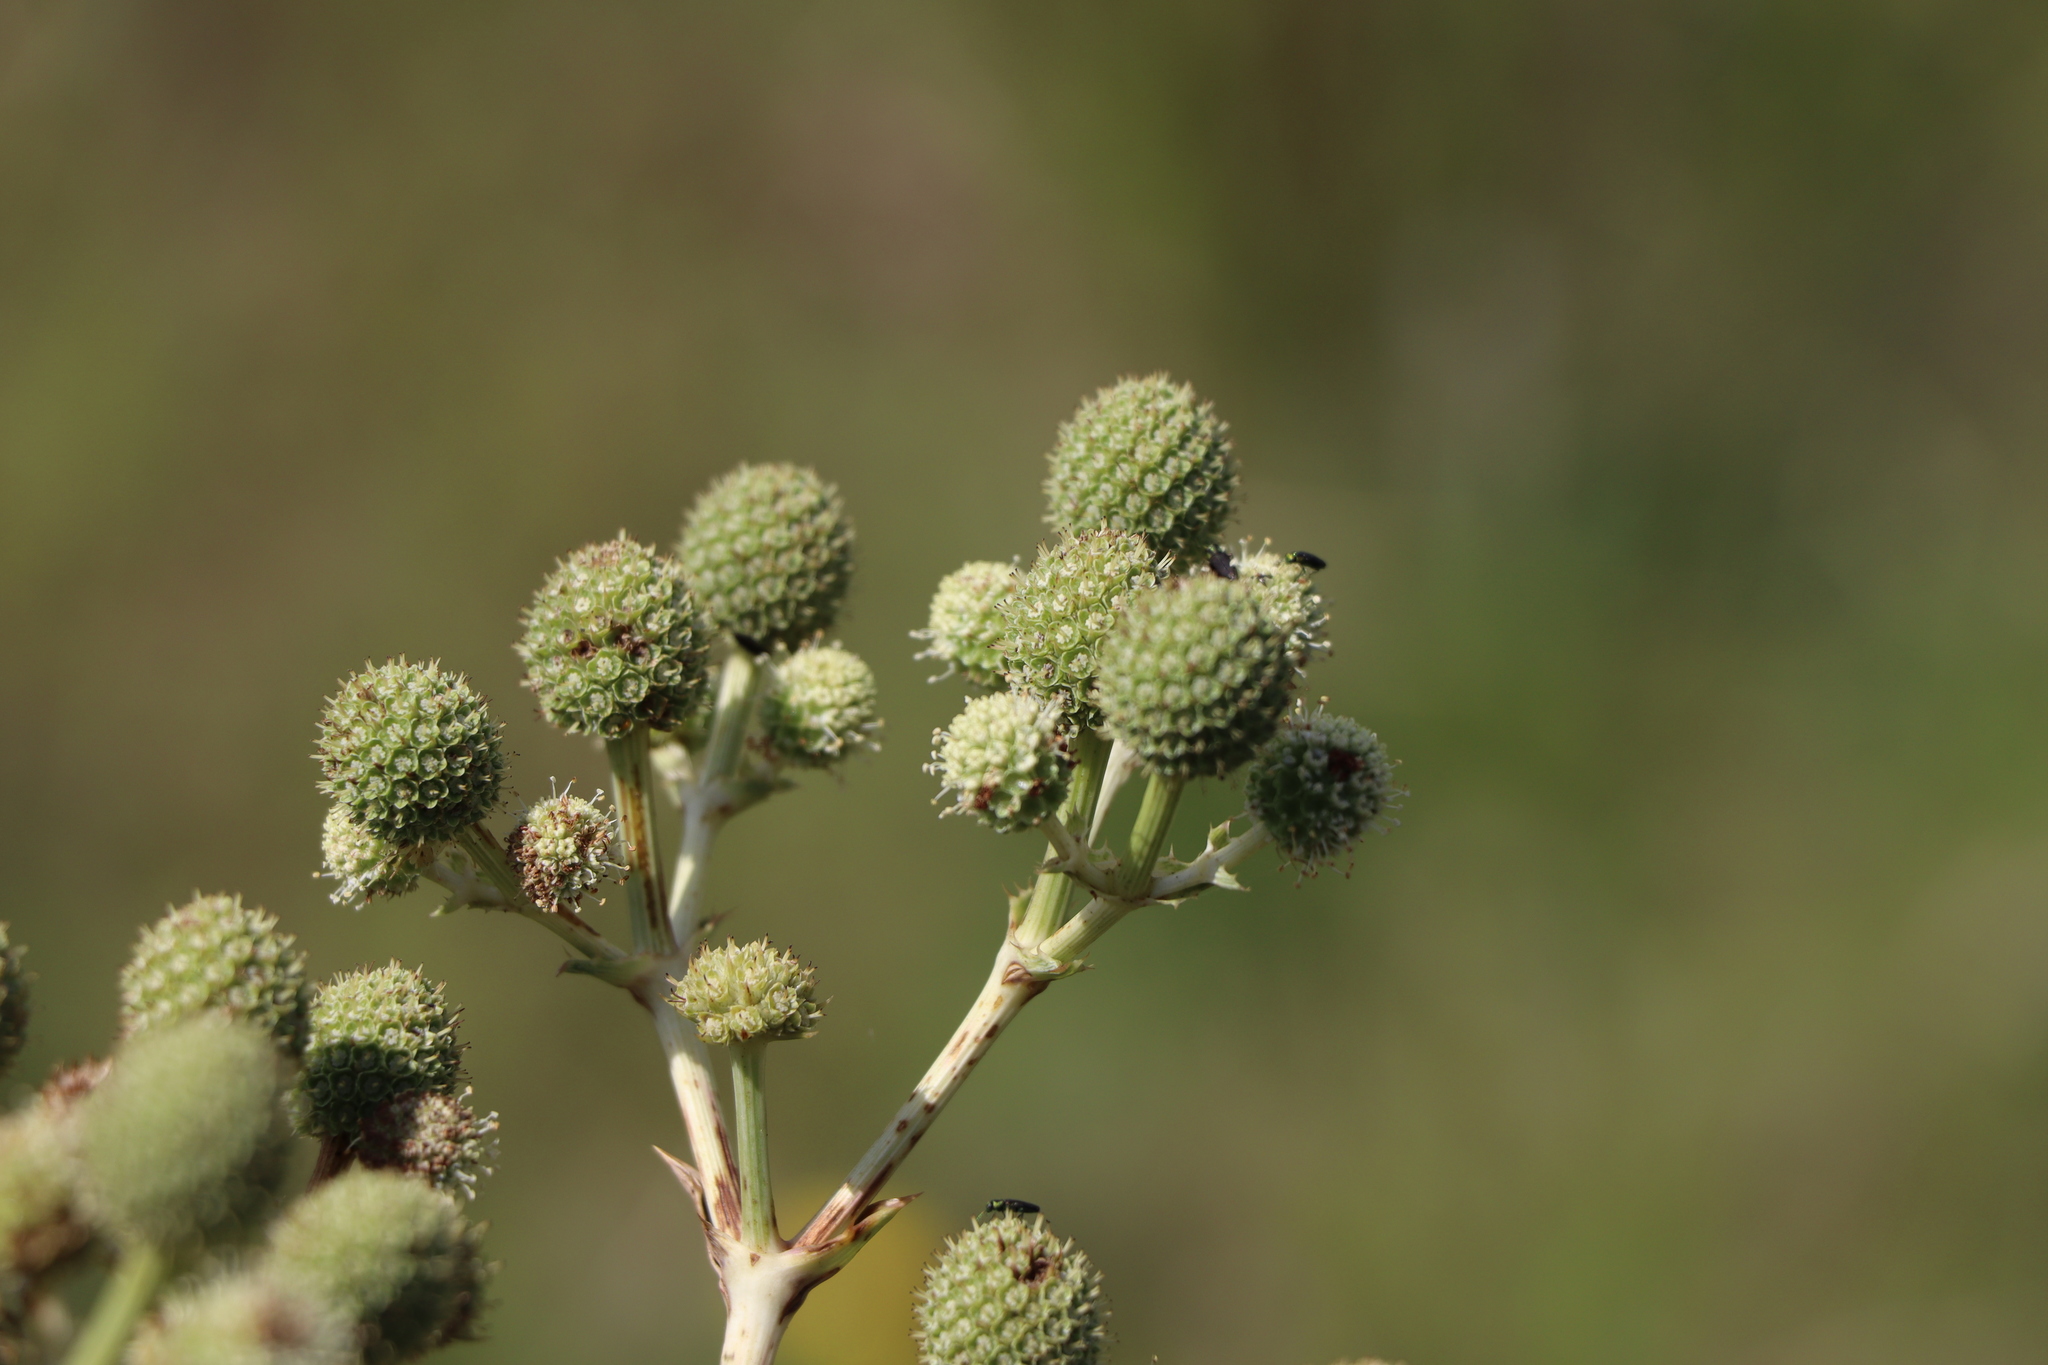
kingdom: Plantae
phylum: Tracheophyta
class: Magnoliopsida
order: Apiales
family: Apiaceae
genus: Eryngium
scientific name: Eryngium horridum
